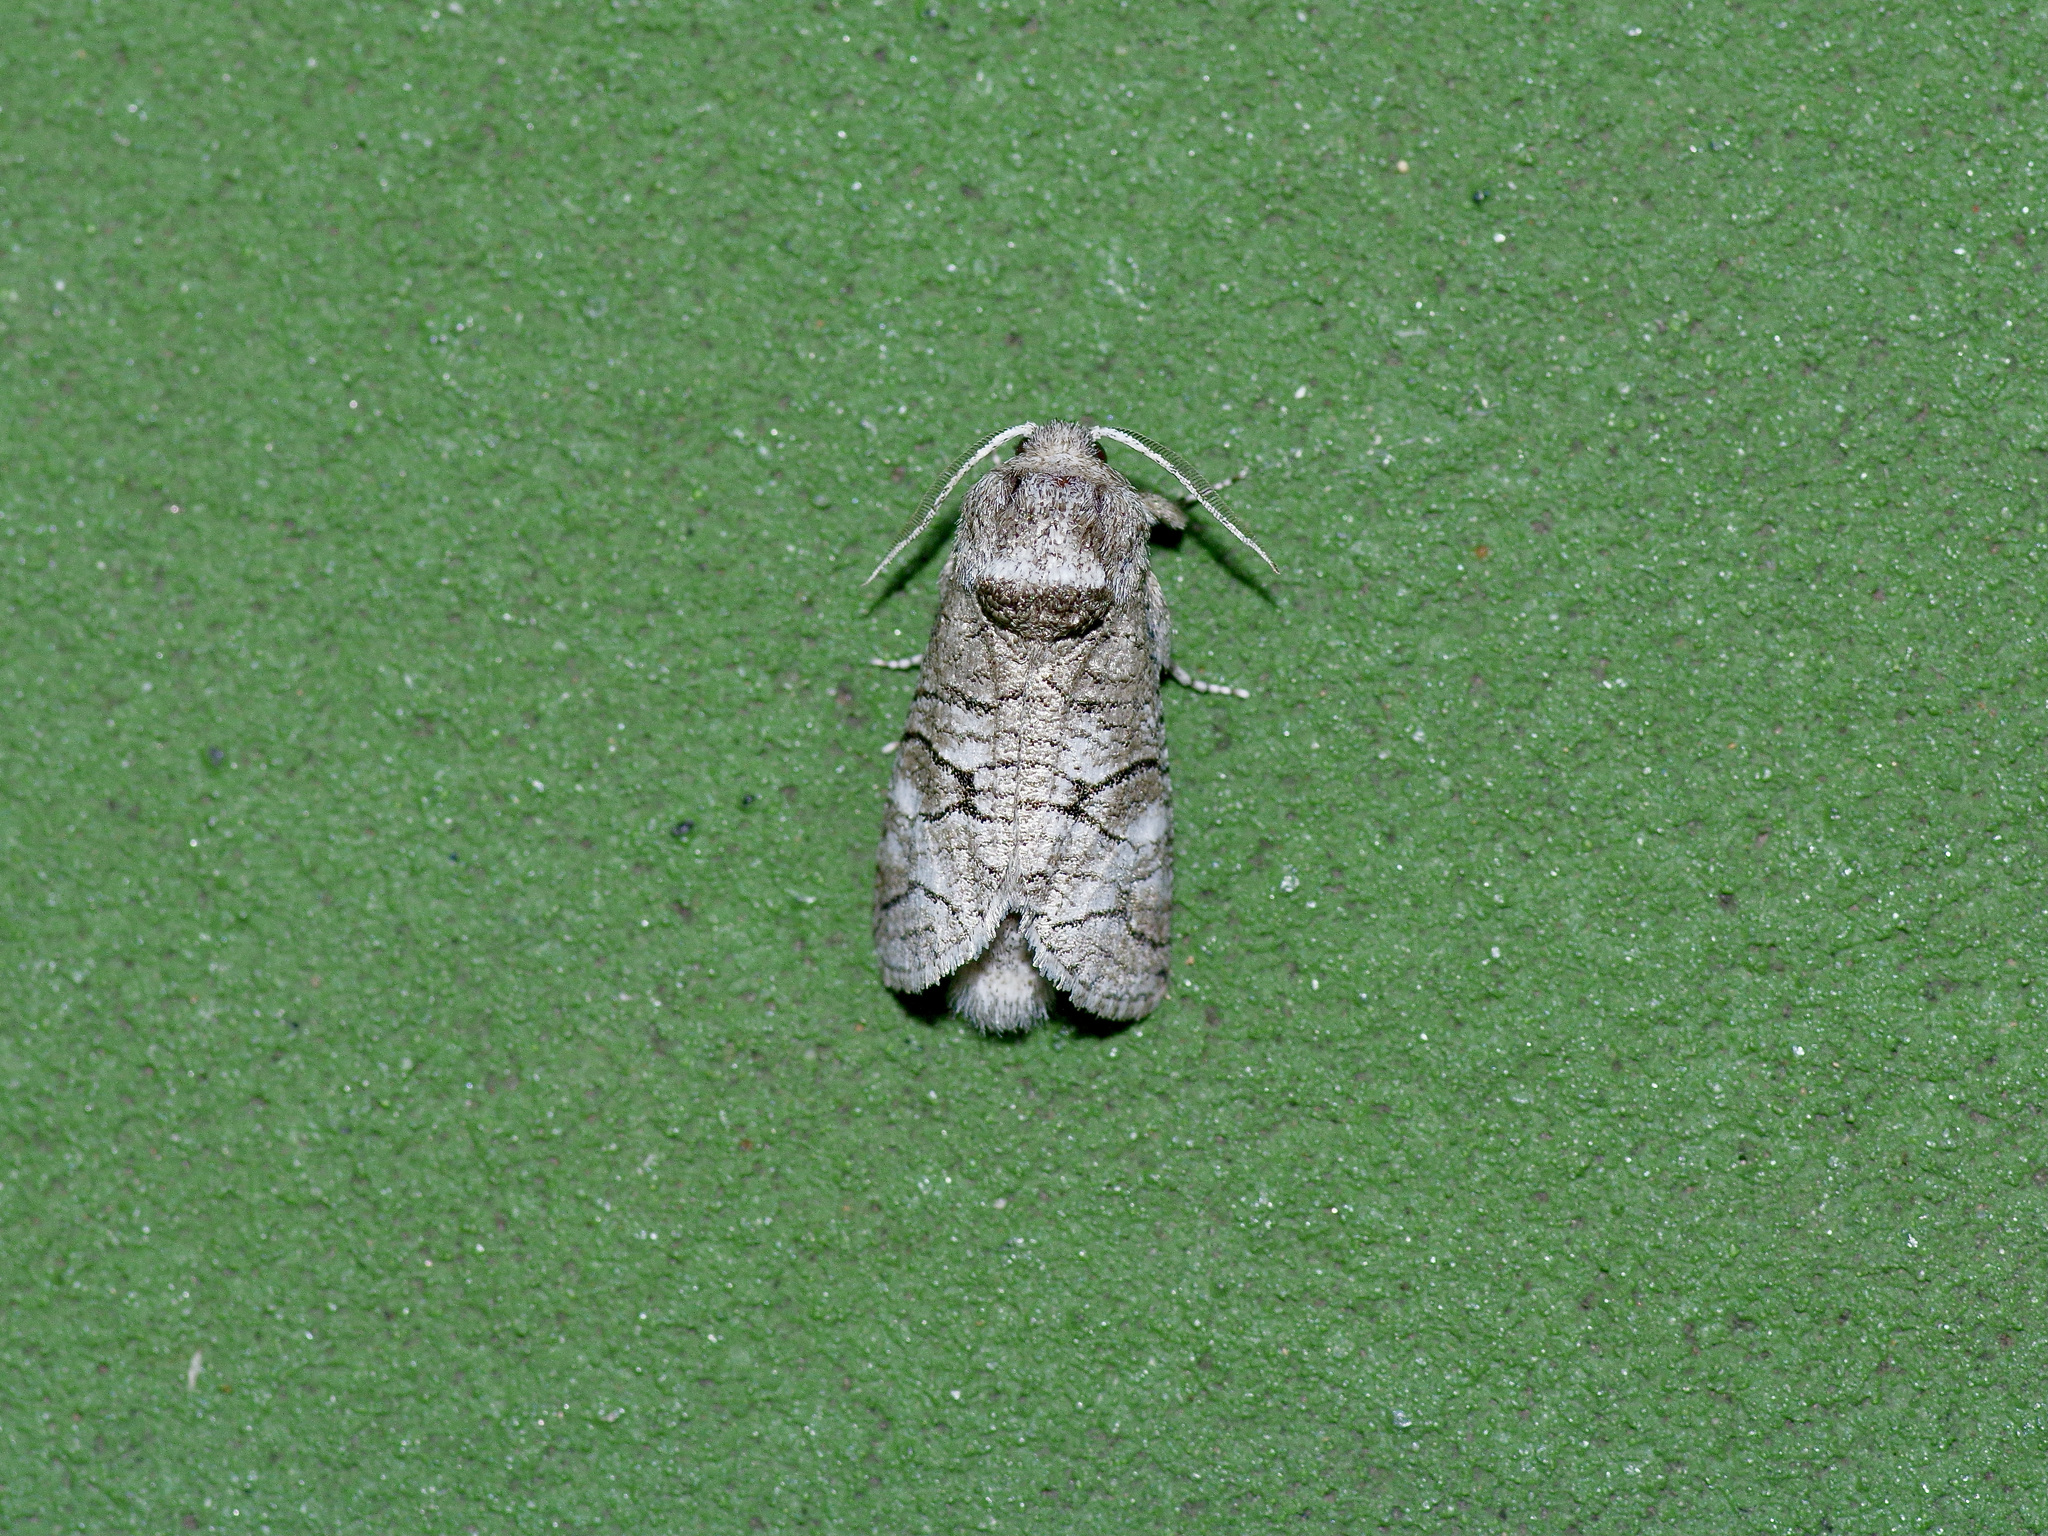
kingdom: Animalia
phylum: Arthropoda
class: Insecta
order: Lepidoptera
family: Cossidae
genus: Fania
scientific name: Fania nanus
